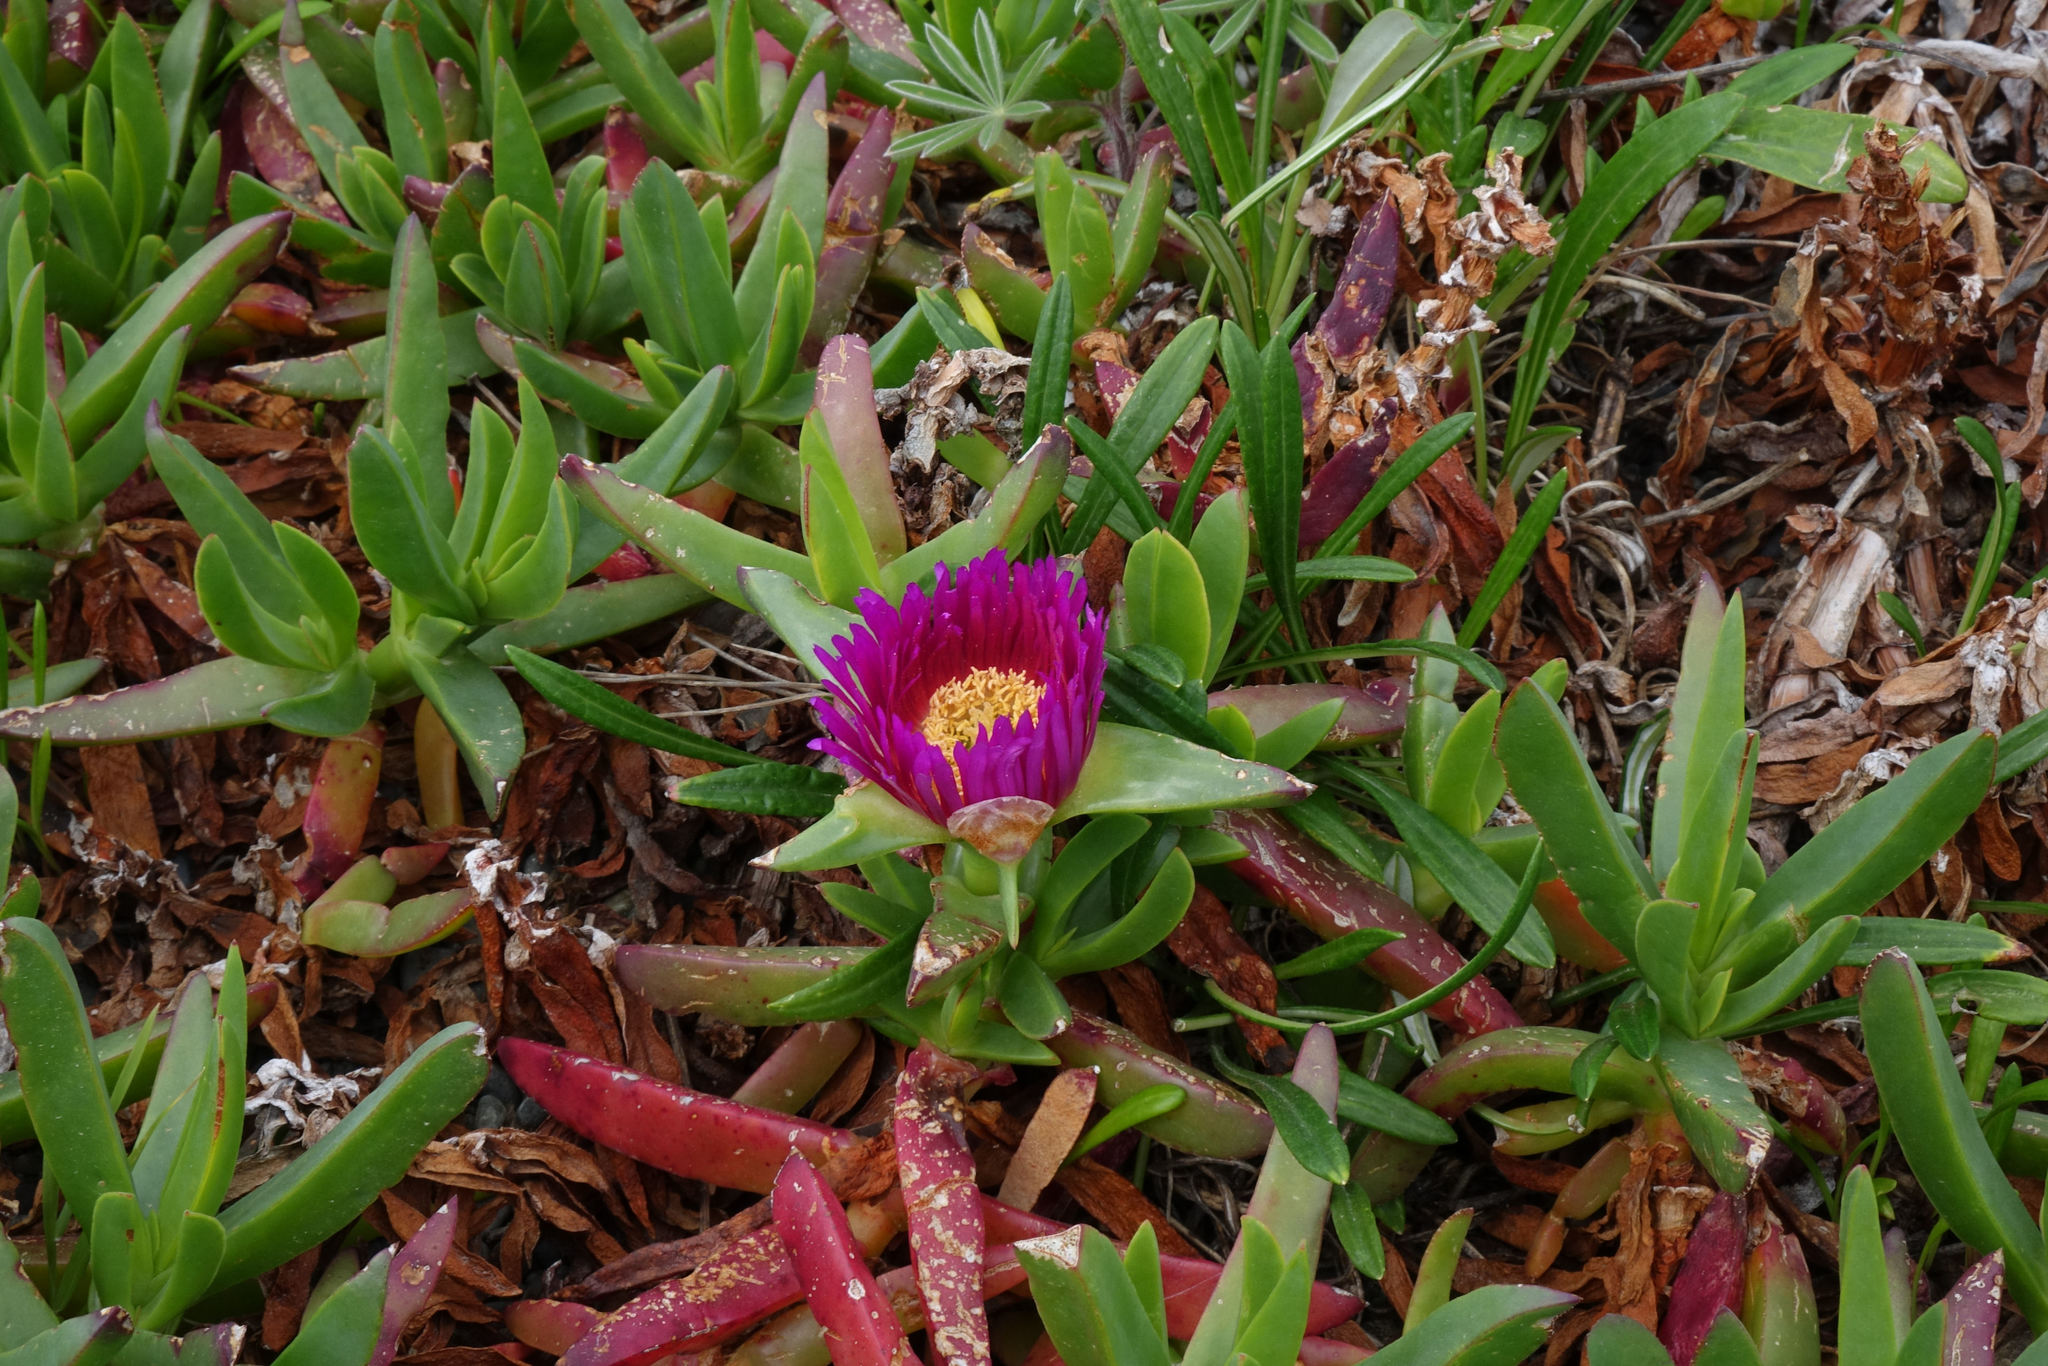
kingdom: Plantae
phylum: Tracheophyta
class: Magnoliopsida
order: Caryophyllales
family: Aizoaceae
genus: Carpobrotus
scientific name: Carpobrotus chilensis
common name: Sea fig
